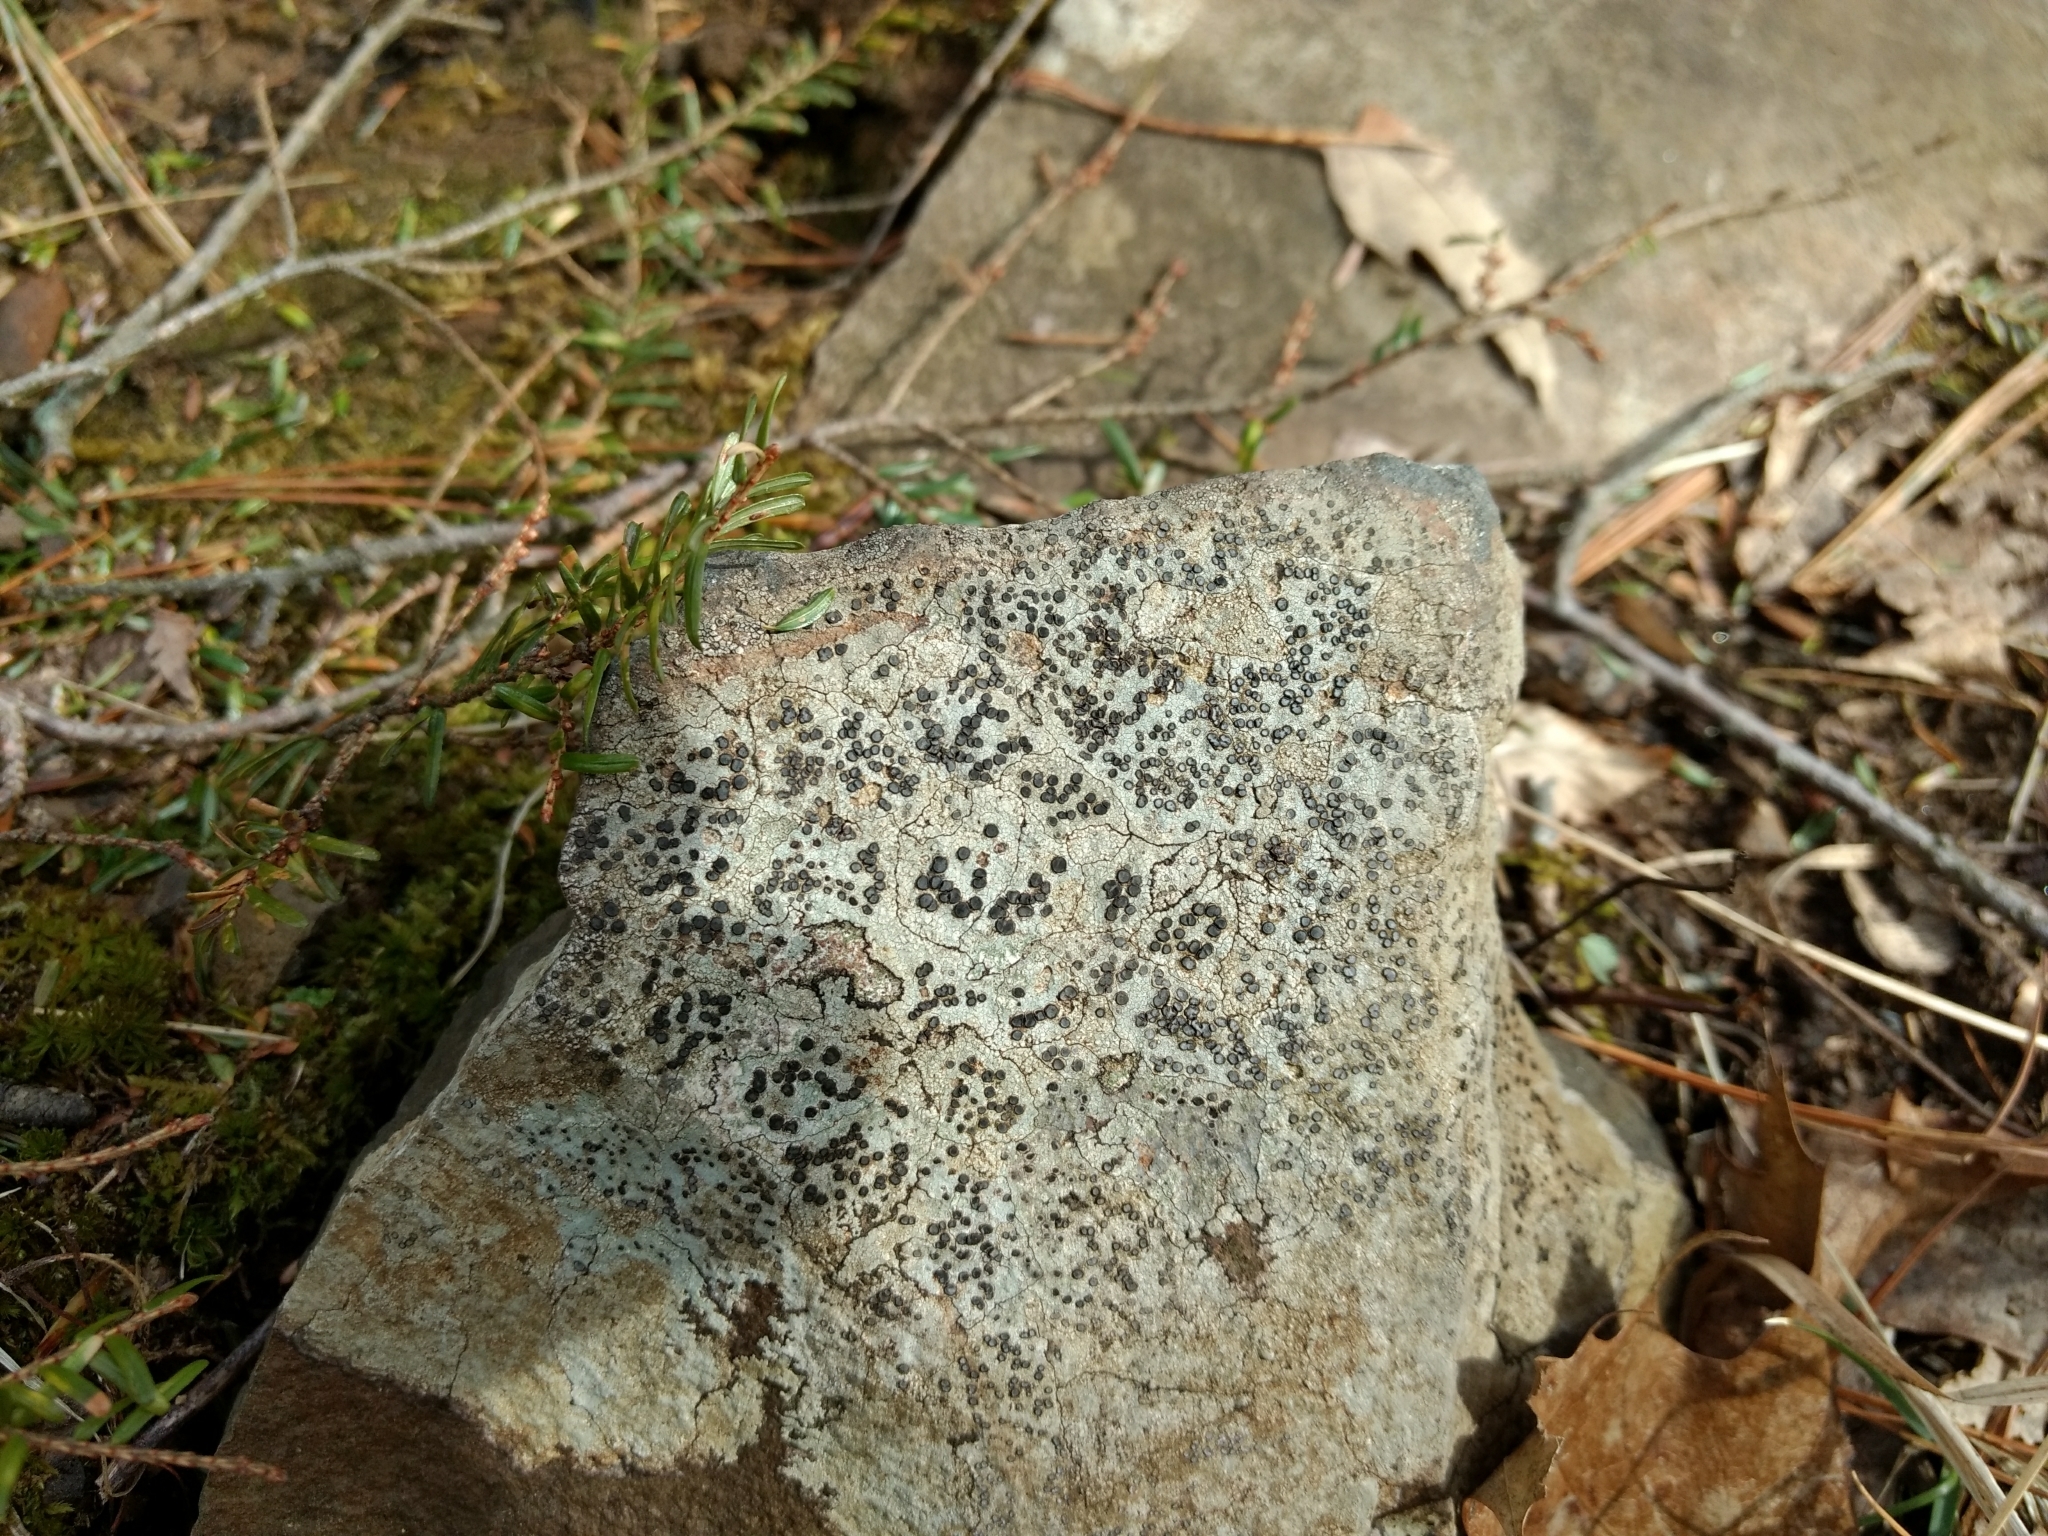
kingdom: Fungi
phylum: Ascomycota
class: Lecanoromycetes
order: Lecideales
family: Lecideaceae
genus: Porpidia
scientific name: Porpidia albocaerulescens
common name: Smokey-eyed boulder lichen
